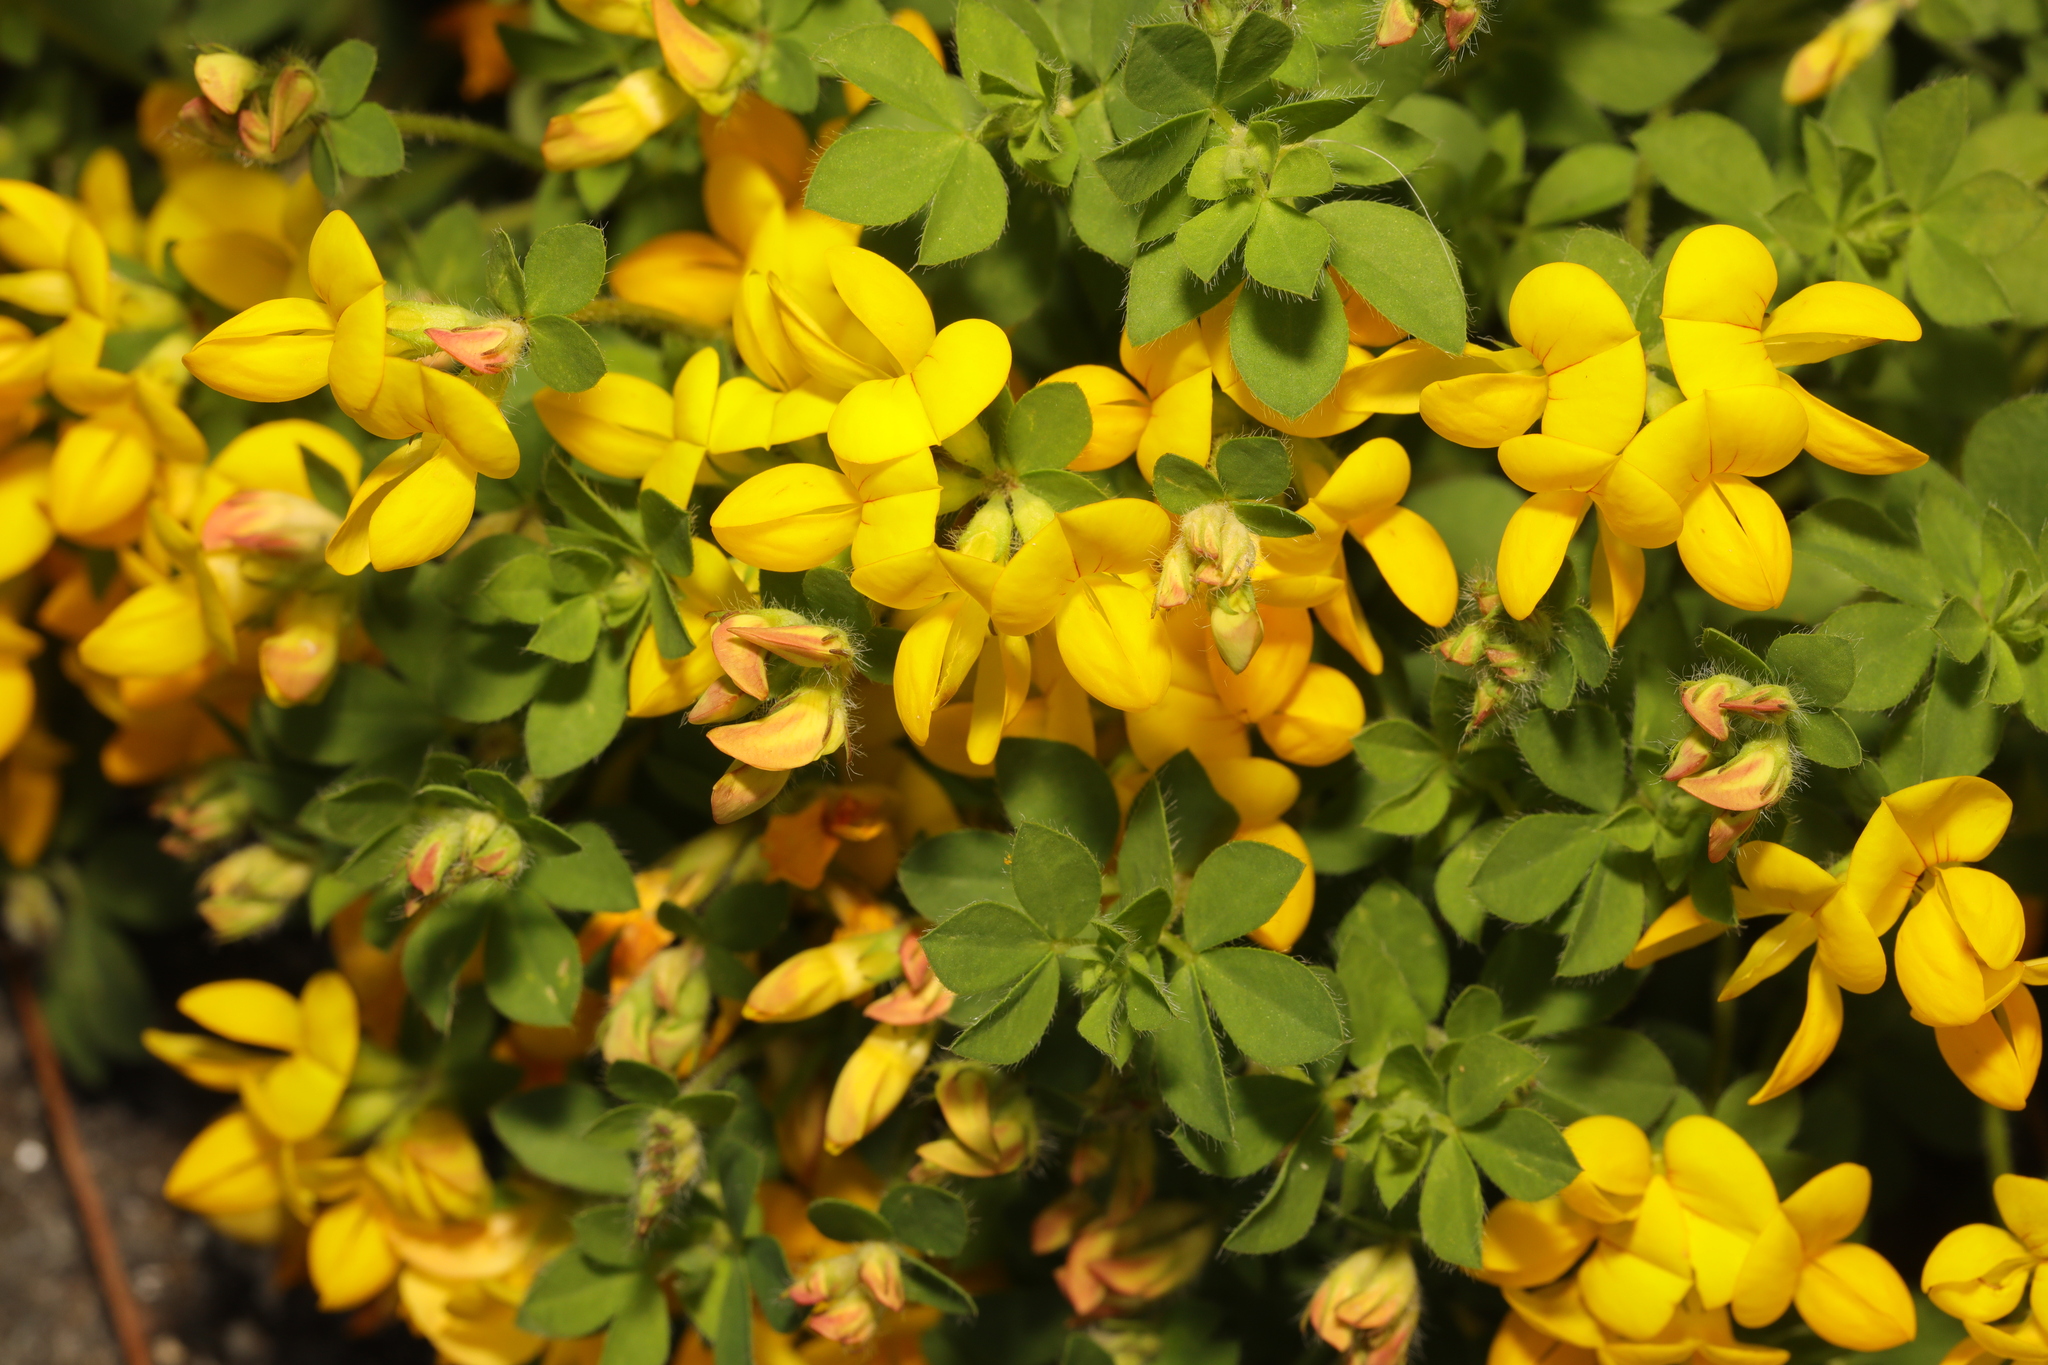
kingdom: Plantae
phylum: Tracheophyta
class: Magnoliopsida
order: Fabales
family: Fabaceae
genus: Lotus
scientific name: Lotus corniculatus
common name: Common bird's-foot-trefoil
